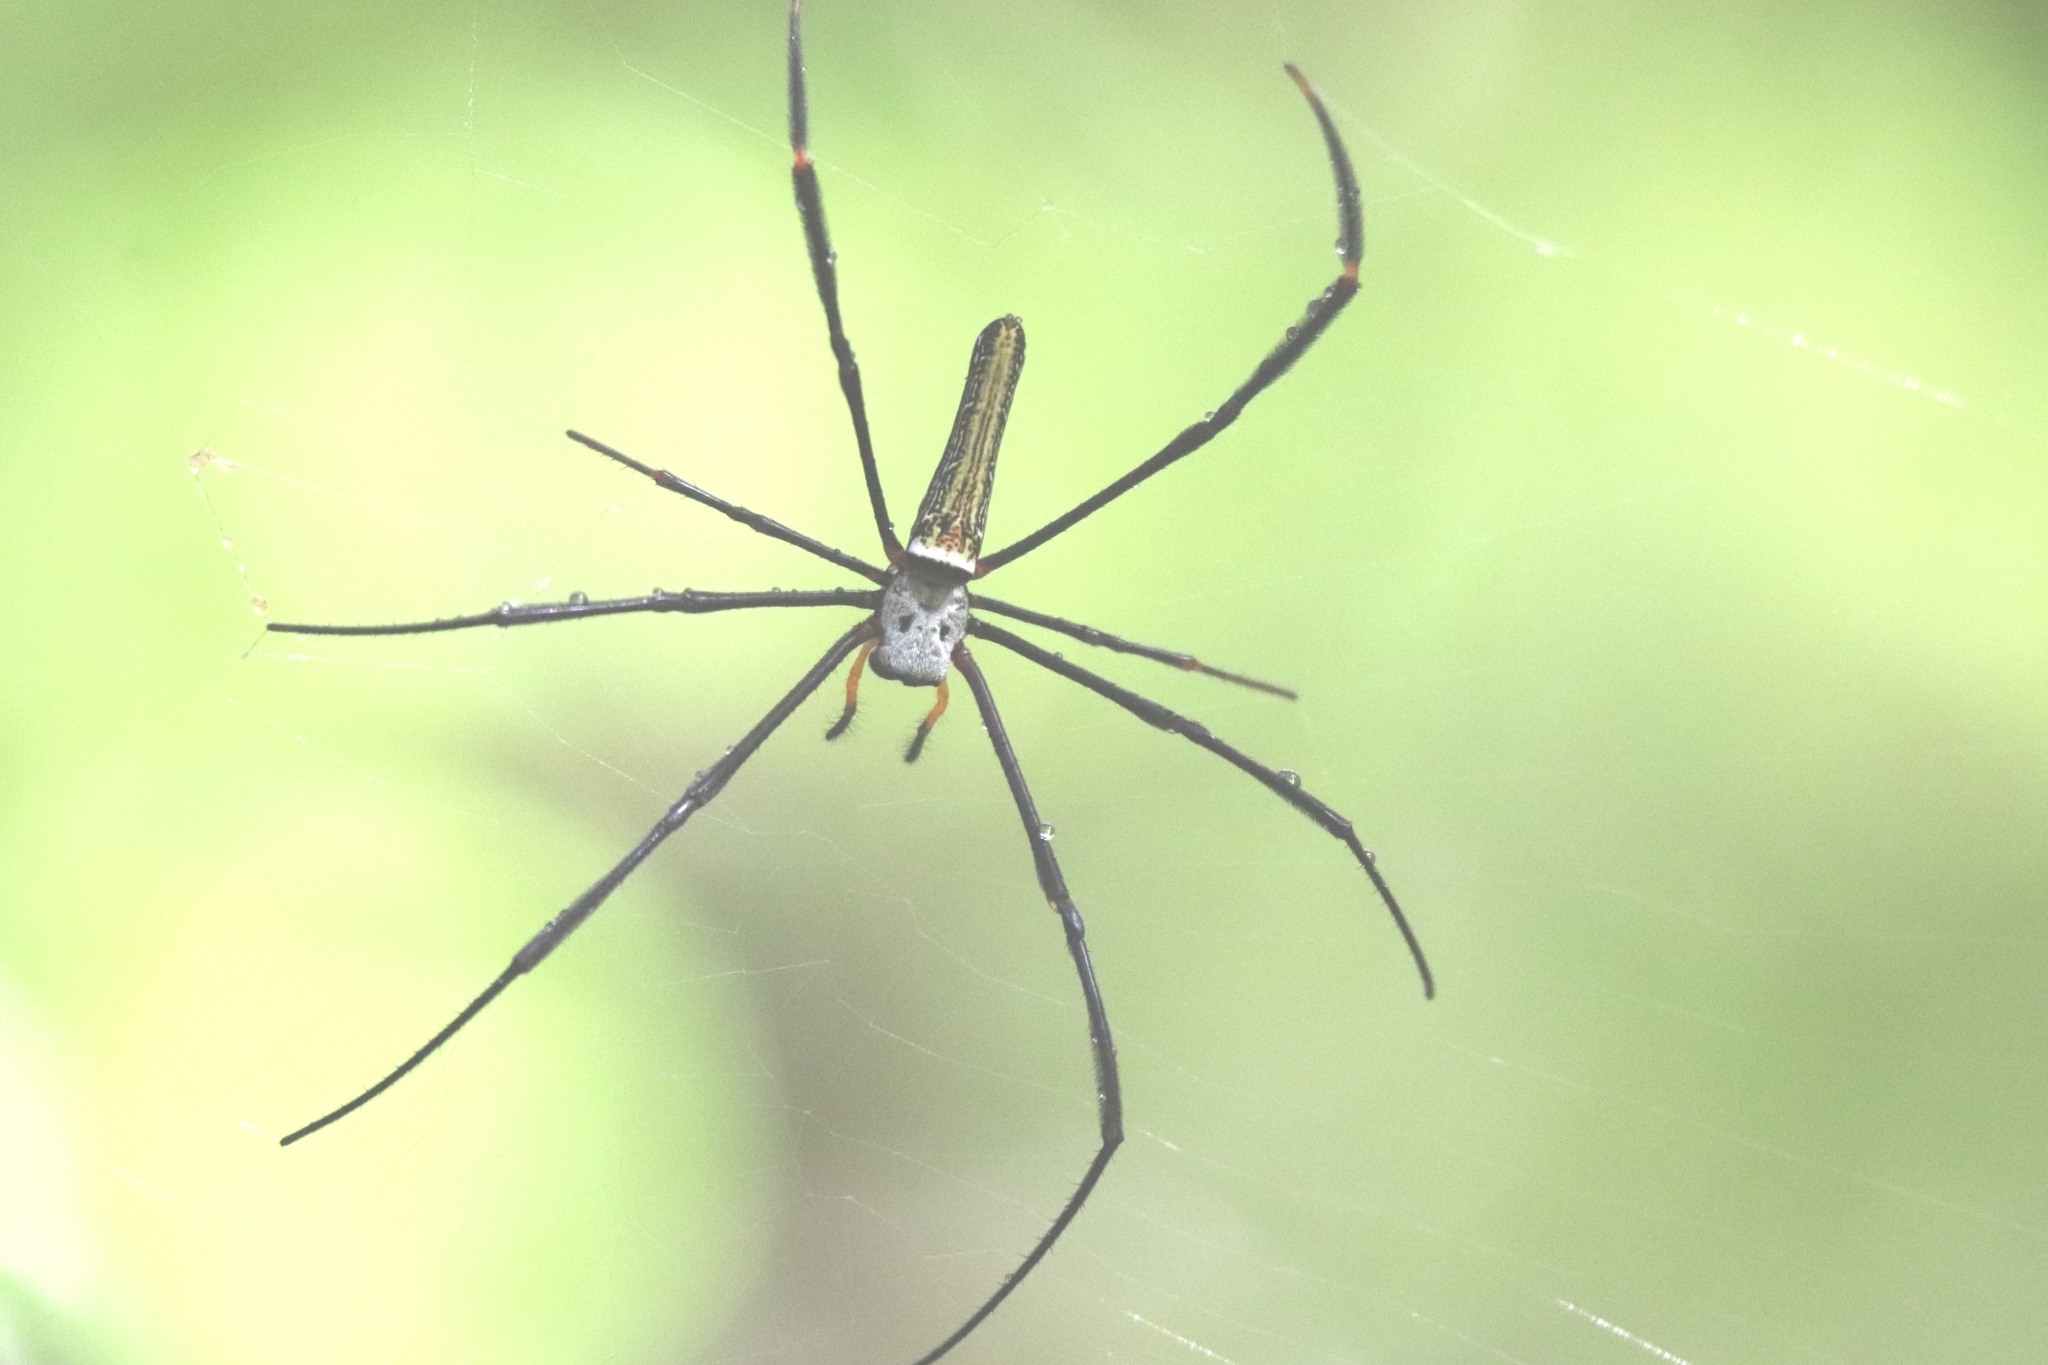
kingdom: Animalia
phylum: Arthropoda
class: Arachnida
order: Araneae
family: Araneidae
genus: Nephila
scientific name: Nephila pilipes
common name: Giant golden orb weaver
